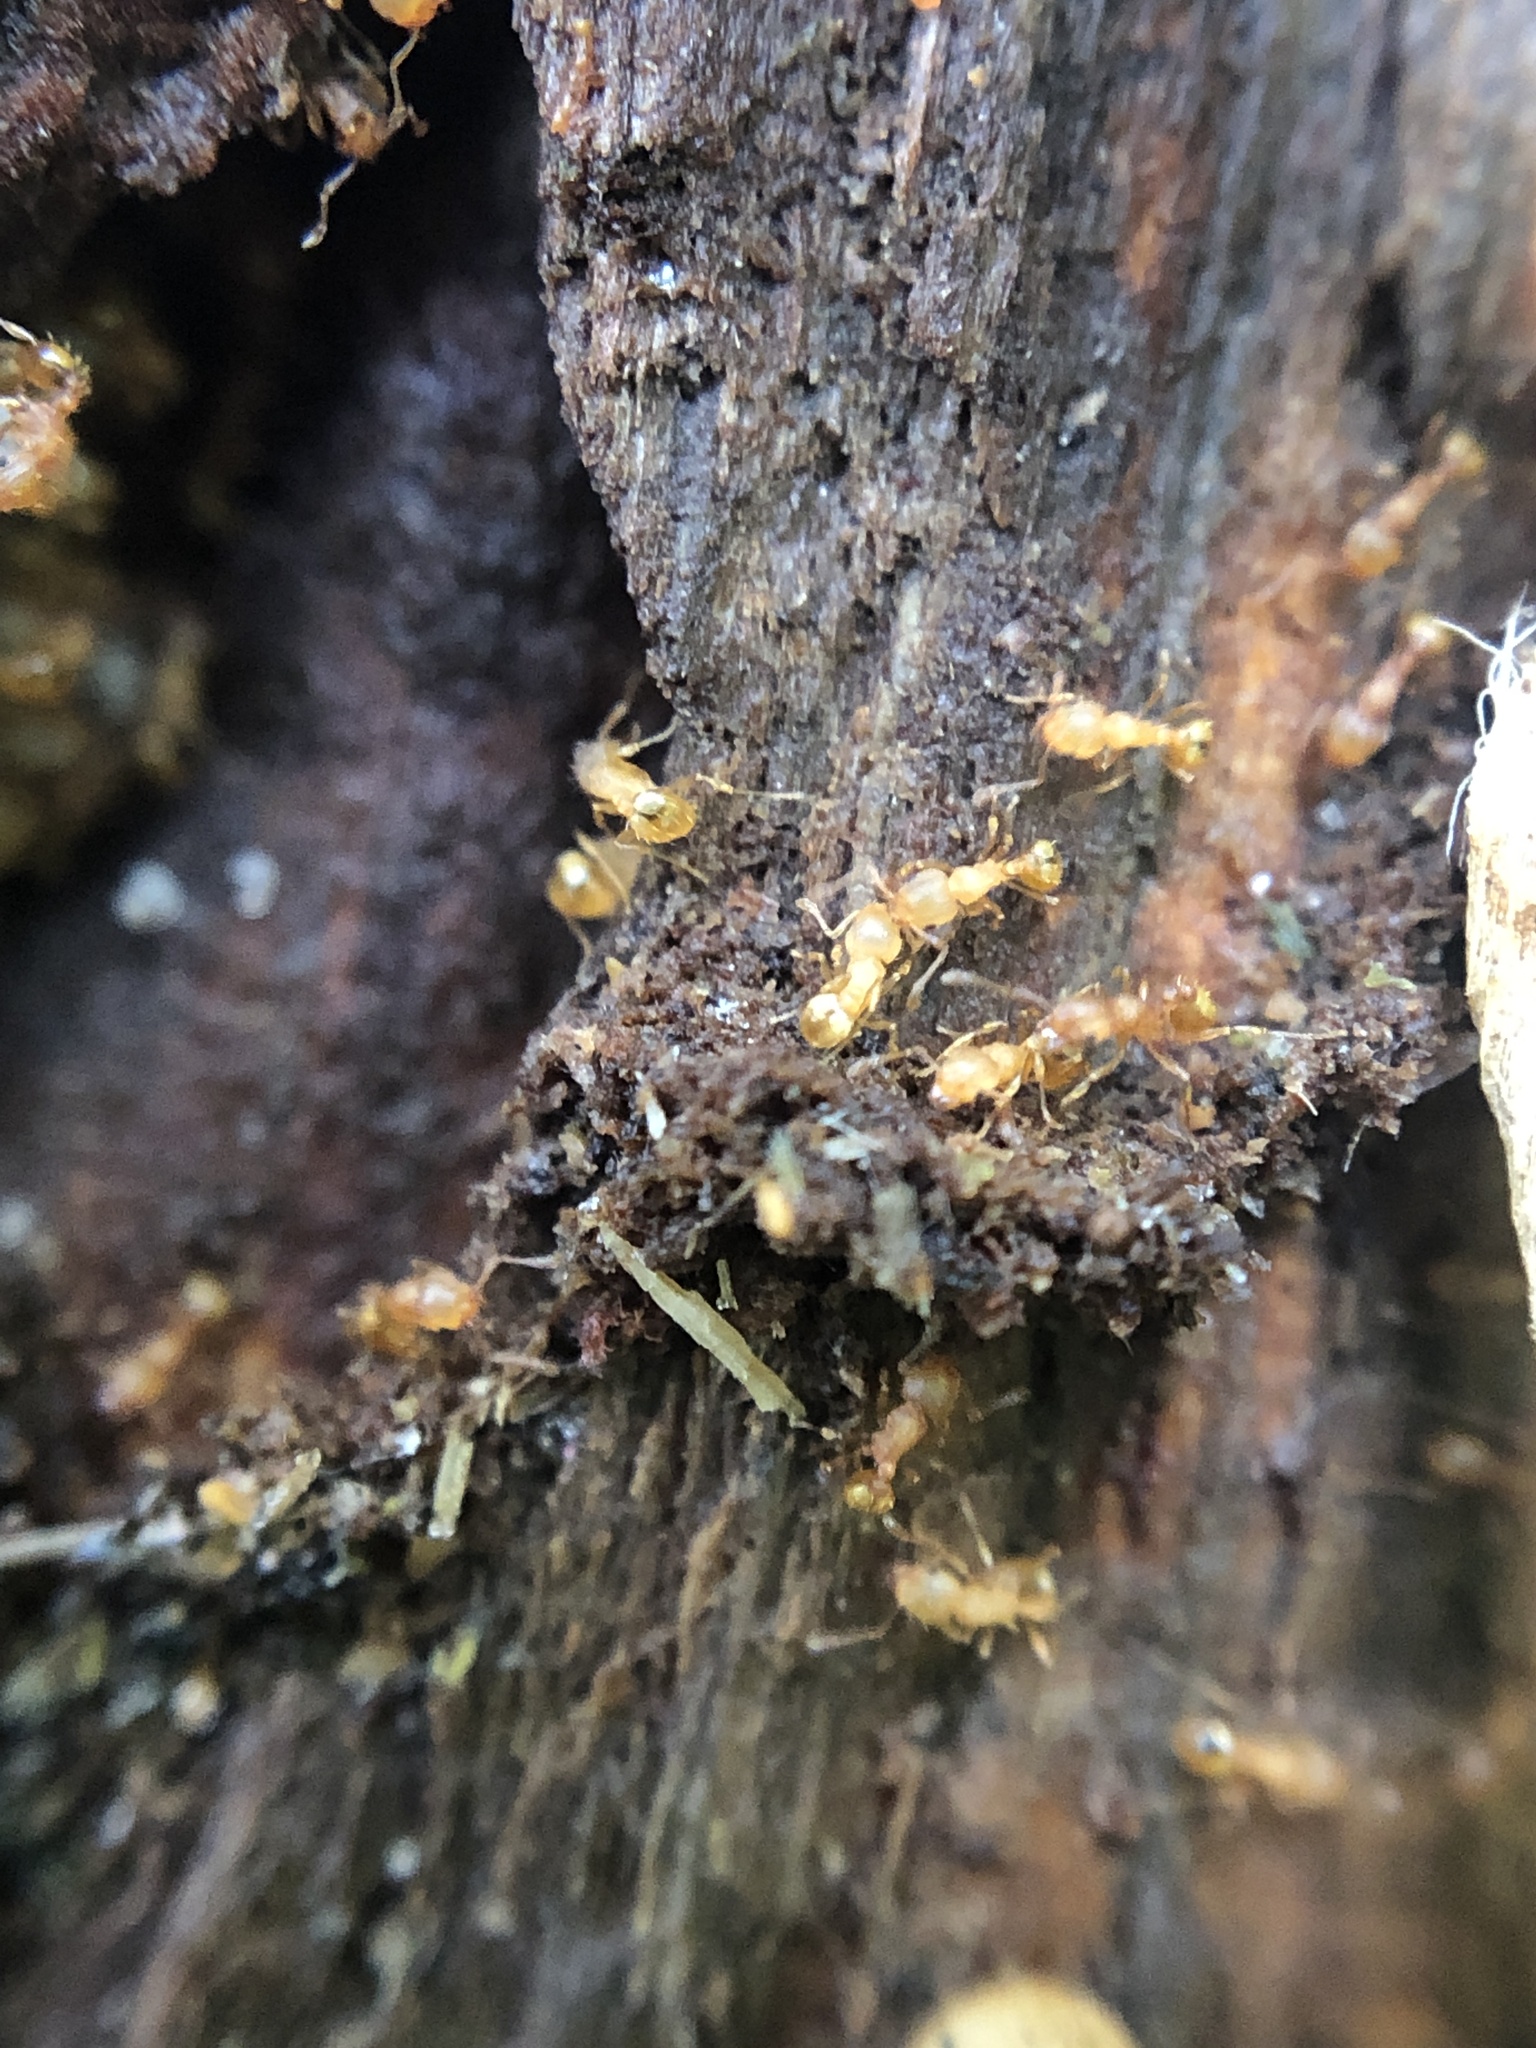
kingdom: Animalia
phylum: Arthropoda
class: Insecta
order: Hymenoptera
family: Formicidae
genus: Wasmannia
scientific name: Wasmannia auropunctata
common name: Little fire ant
